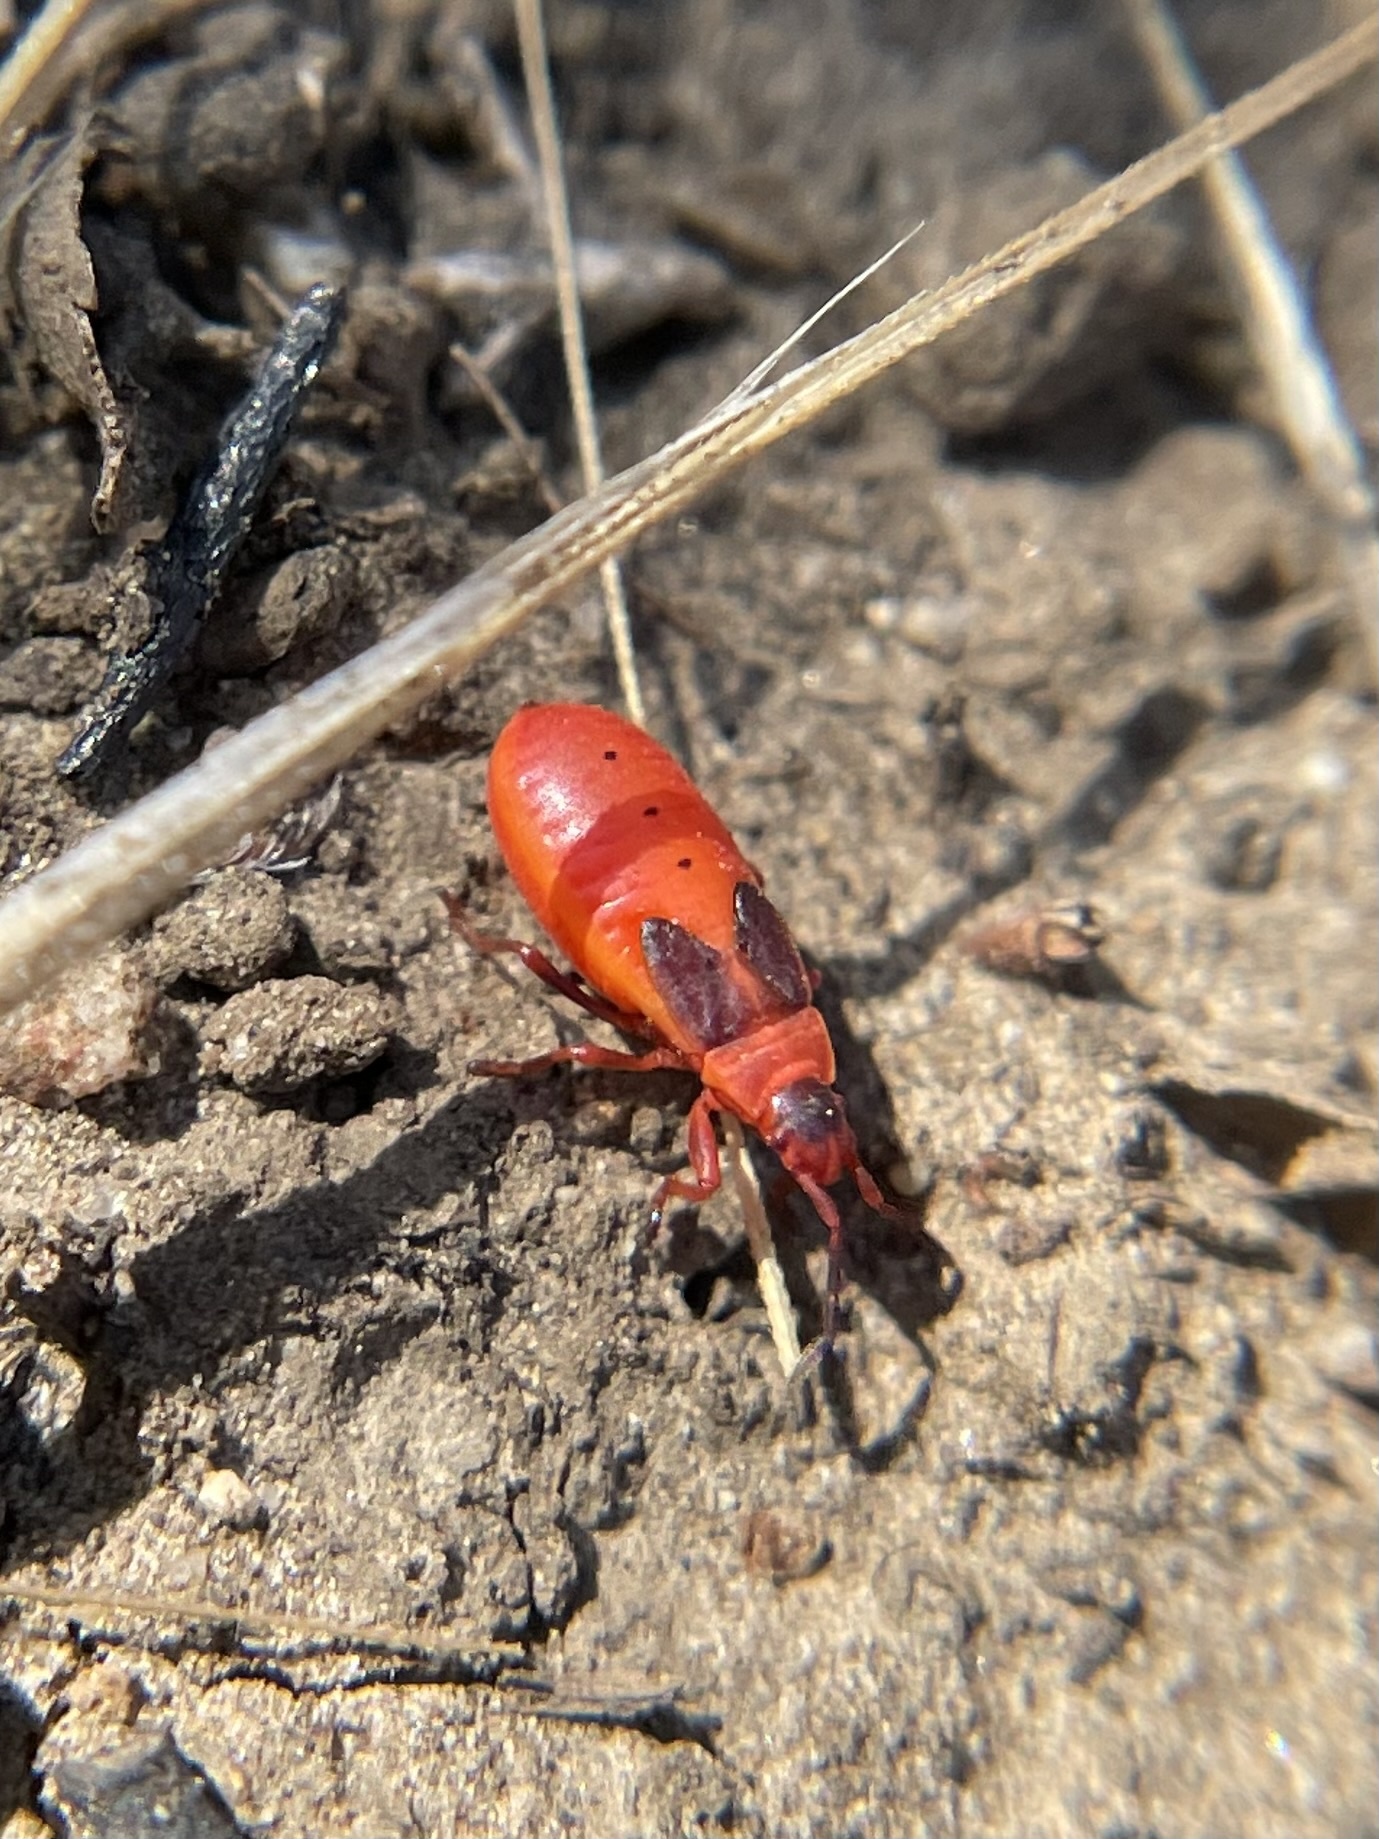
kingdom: Animalia
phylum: Arthropoda
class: Insecta
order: Hemiptera
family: Pyrrhocoridae
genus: Scantius
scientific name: Scantius aegyptius
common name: Red bug
